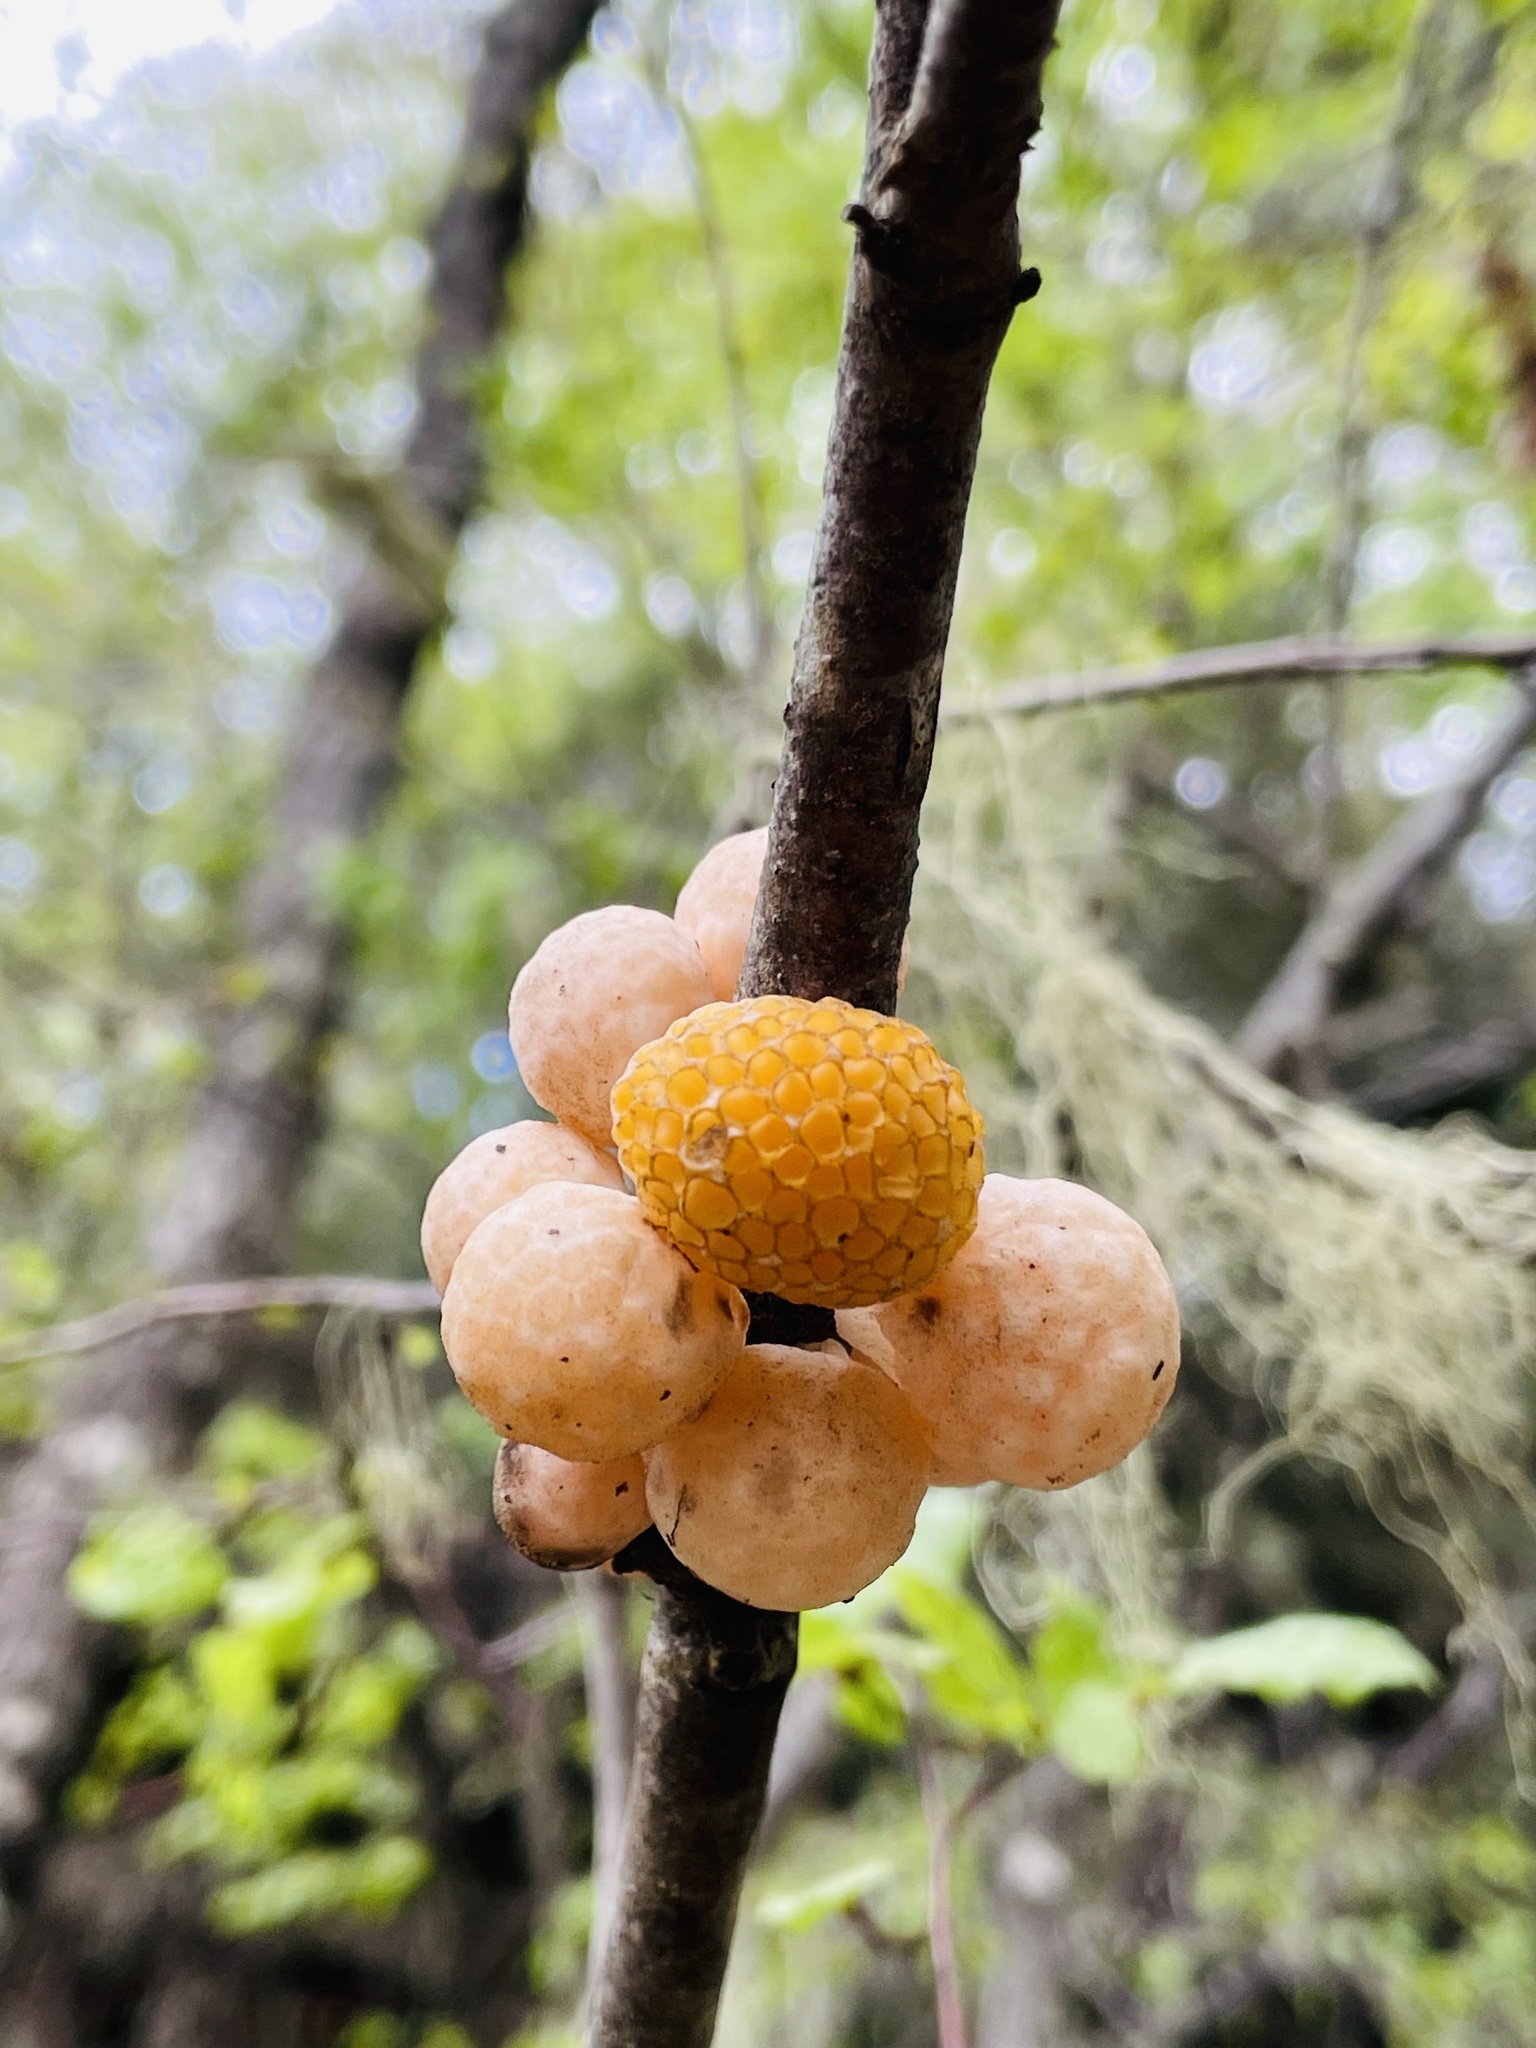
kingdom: Fungi
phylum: Ascomycota
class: Leotiomycetes
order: Cyttariales
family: Cyttariaceae
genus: Cyttaria
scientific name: Cyttaria espinosae
